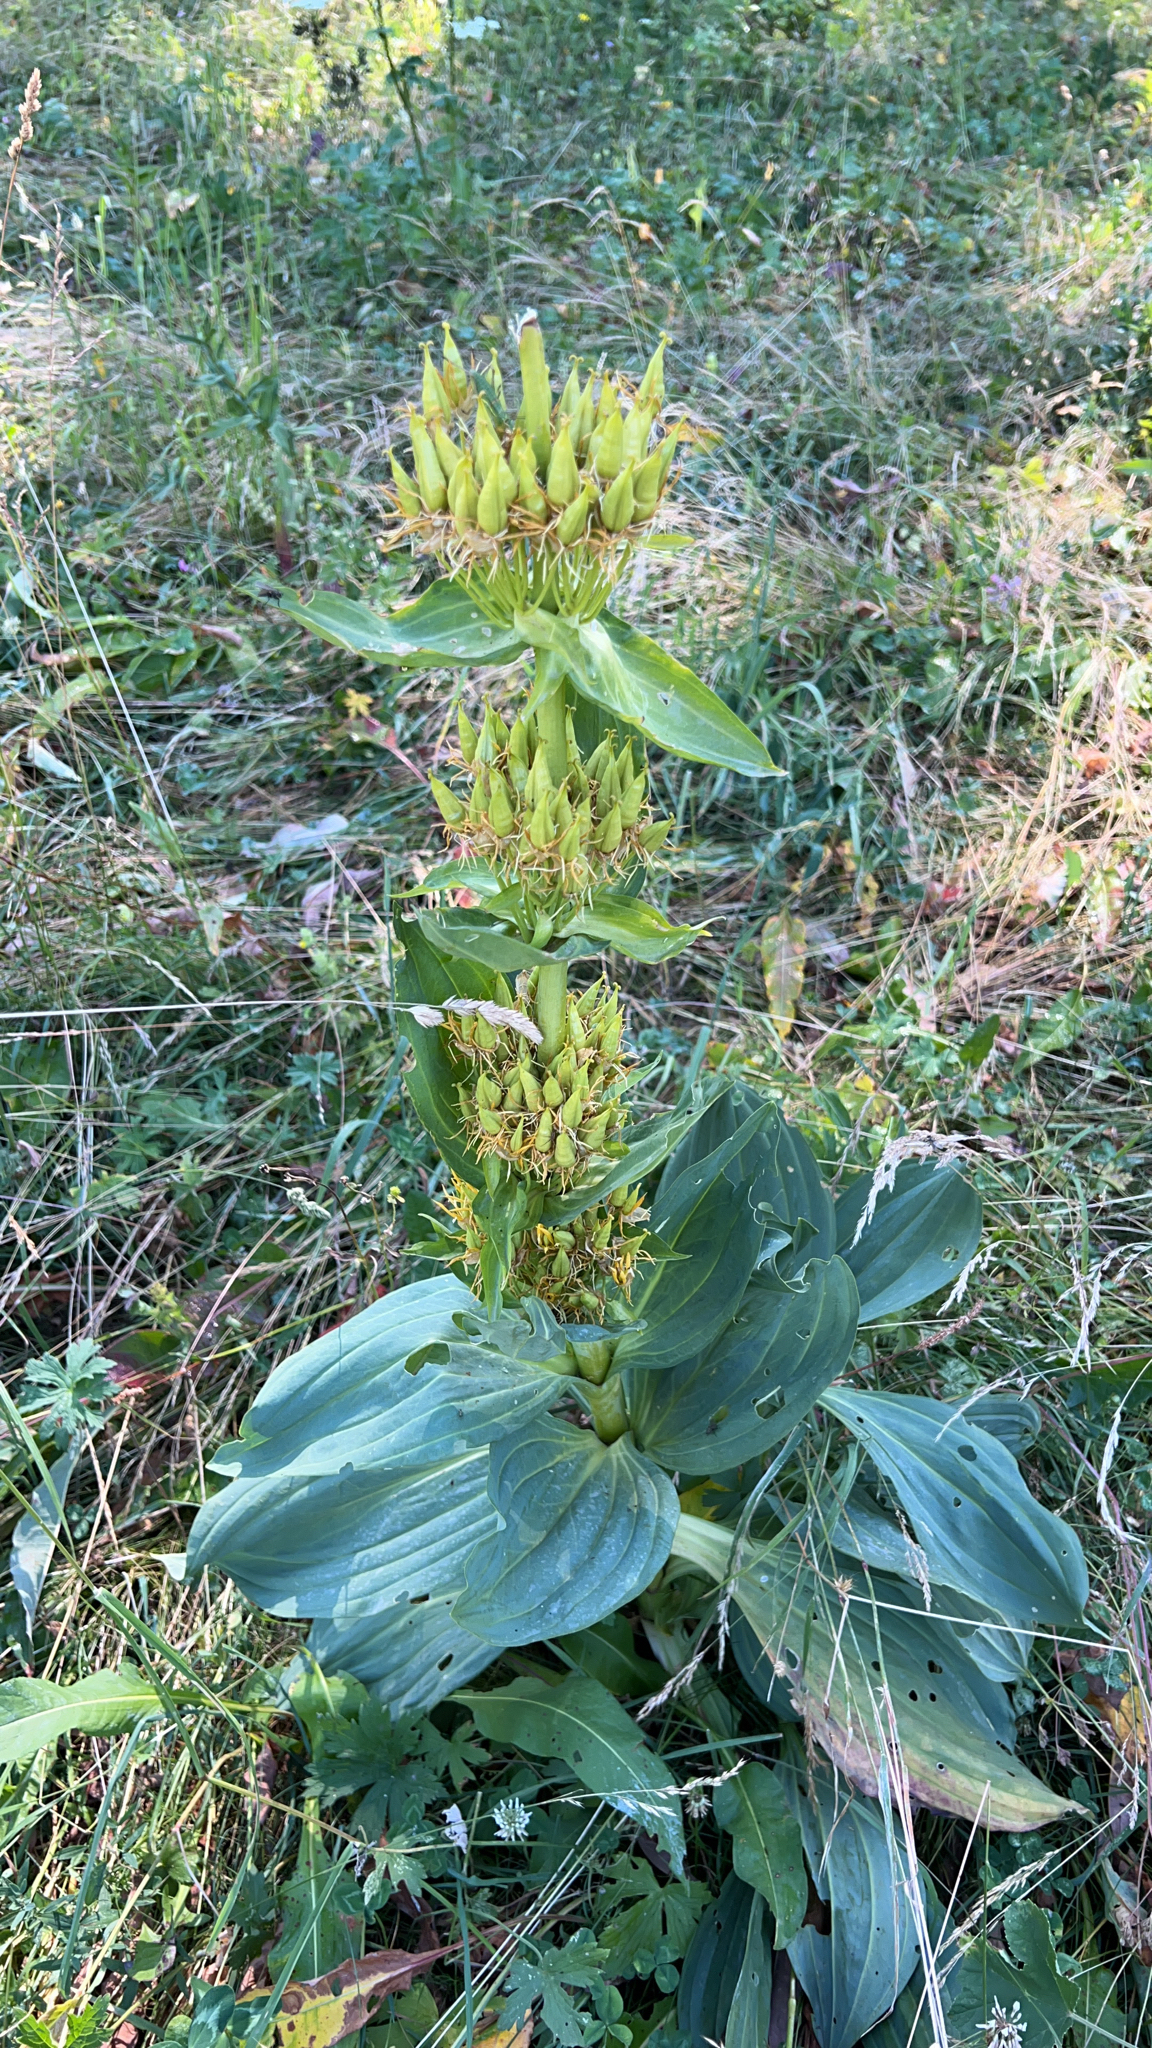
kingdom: Plantae
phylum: Tracheophyta
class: Magnoliopsida
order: Gentianales
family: Gentianaceae
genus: Gentiana
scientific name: Gentiana lutea
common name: Great yellow gentian
